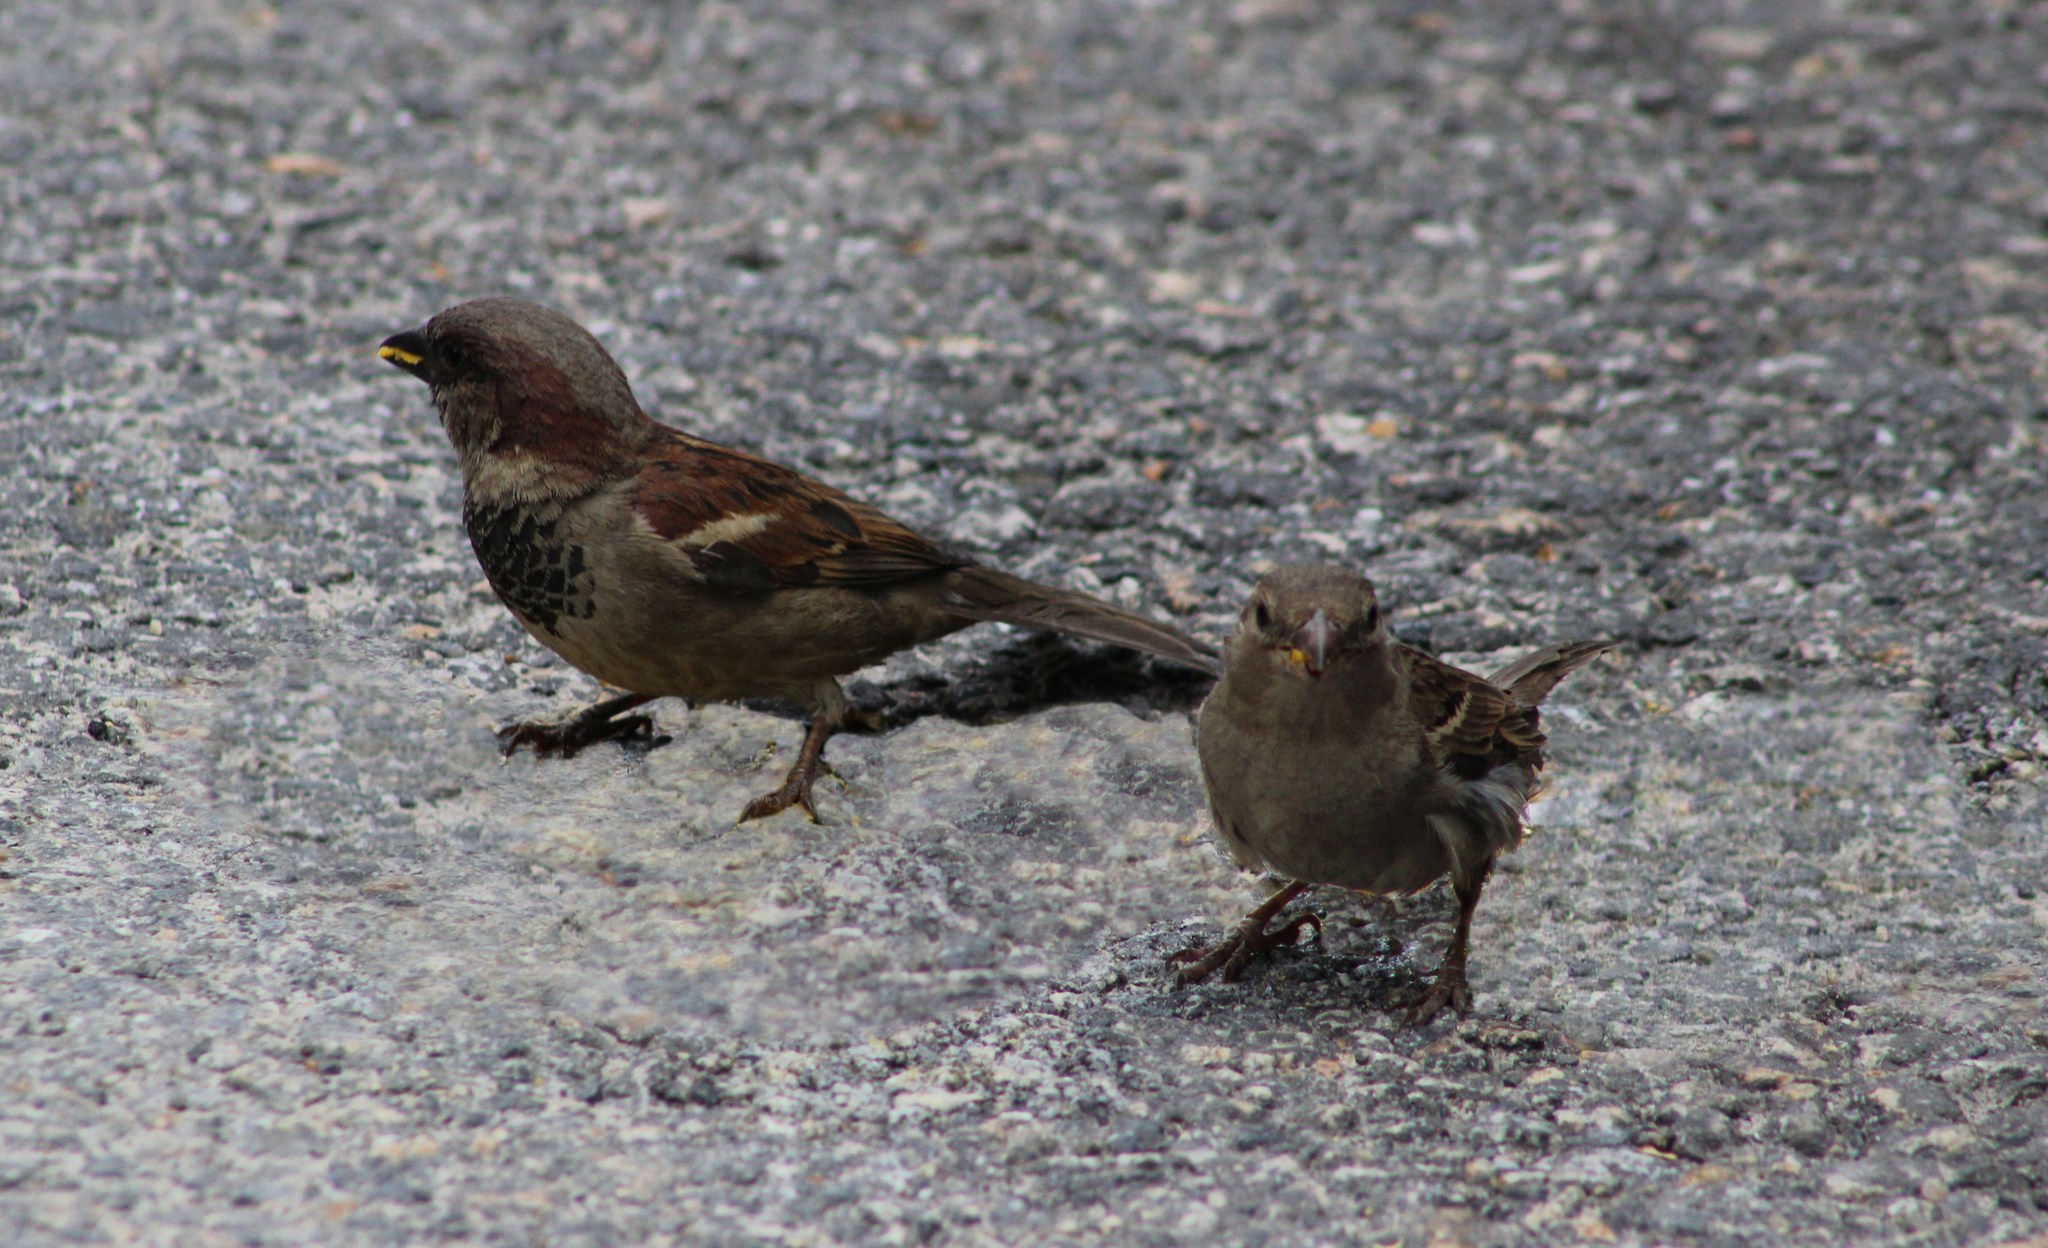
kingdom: Animalia
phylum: Chordata
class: Aves
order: Passeriformes
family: Passeridae
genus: Passer
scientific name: Passer domesticus
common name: House sparrow
